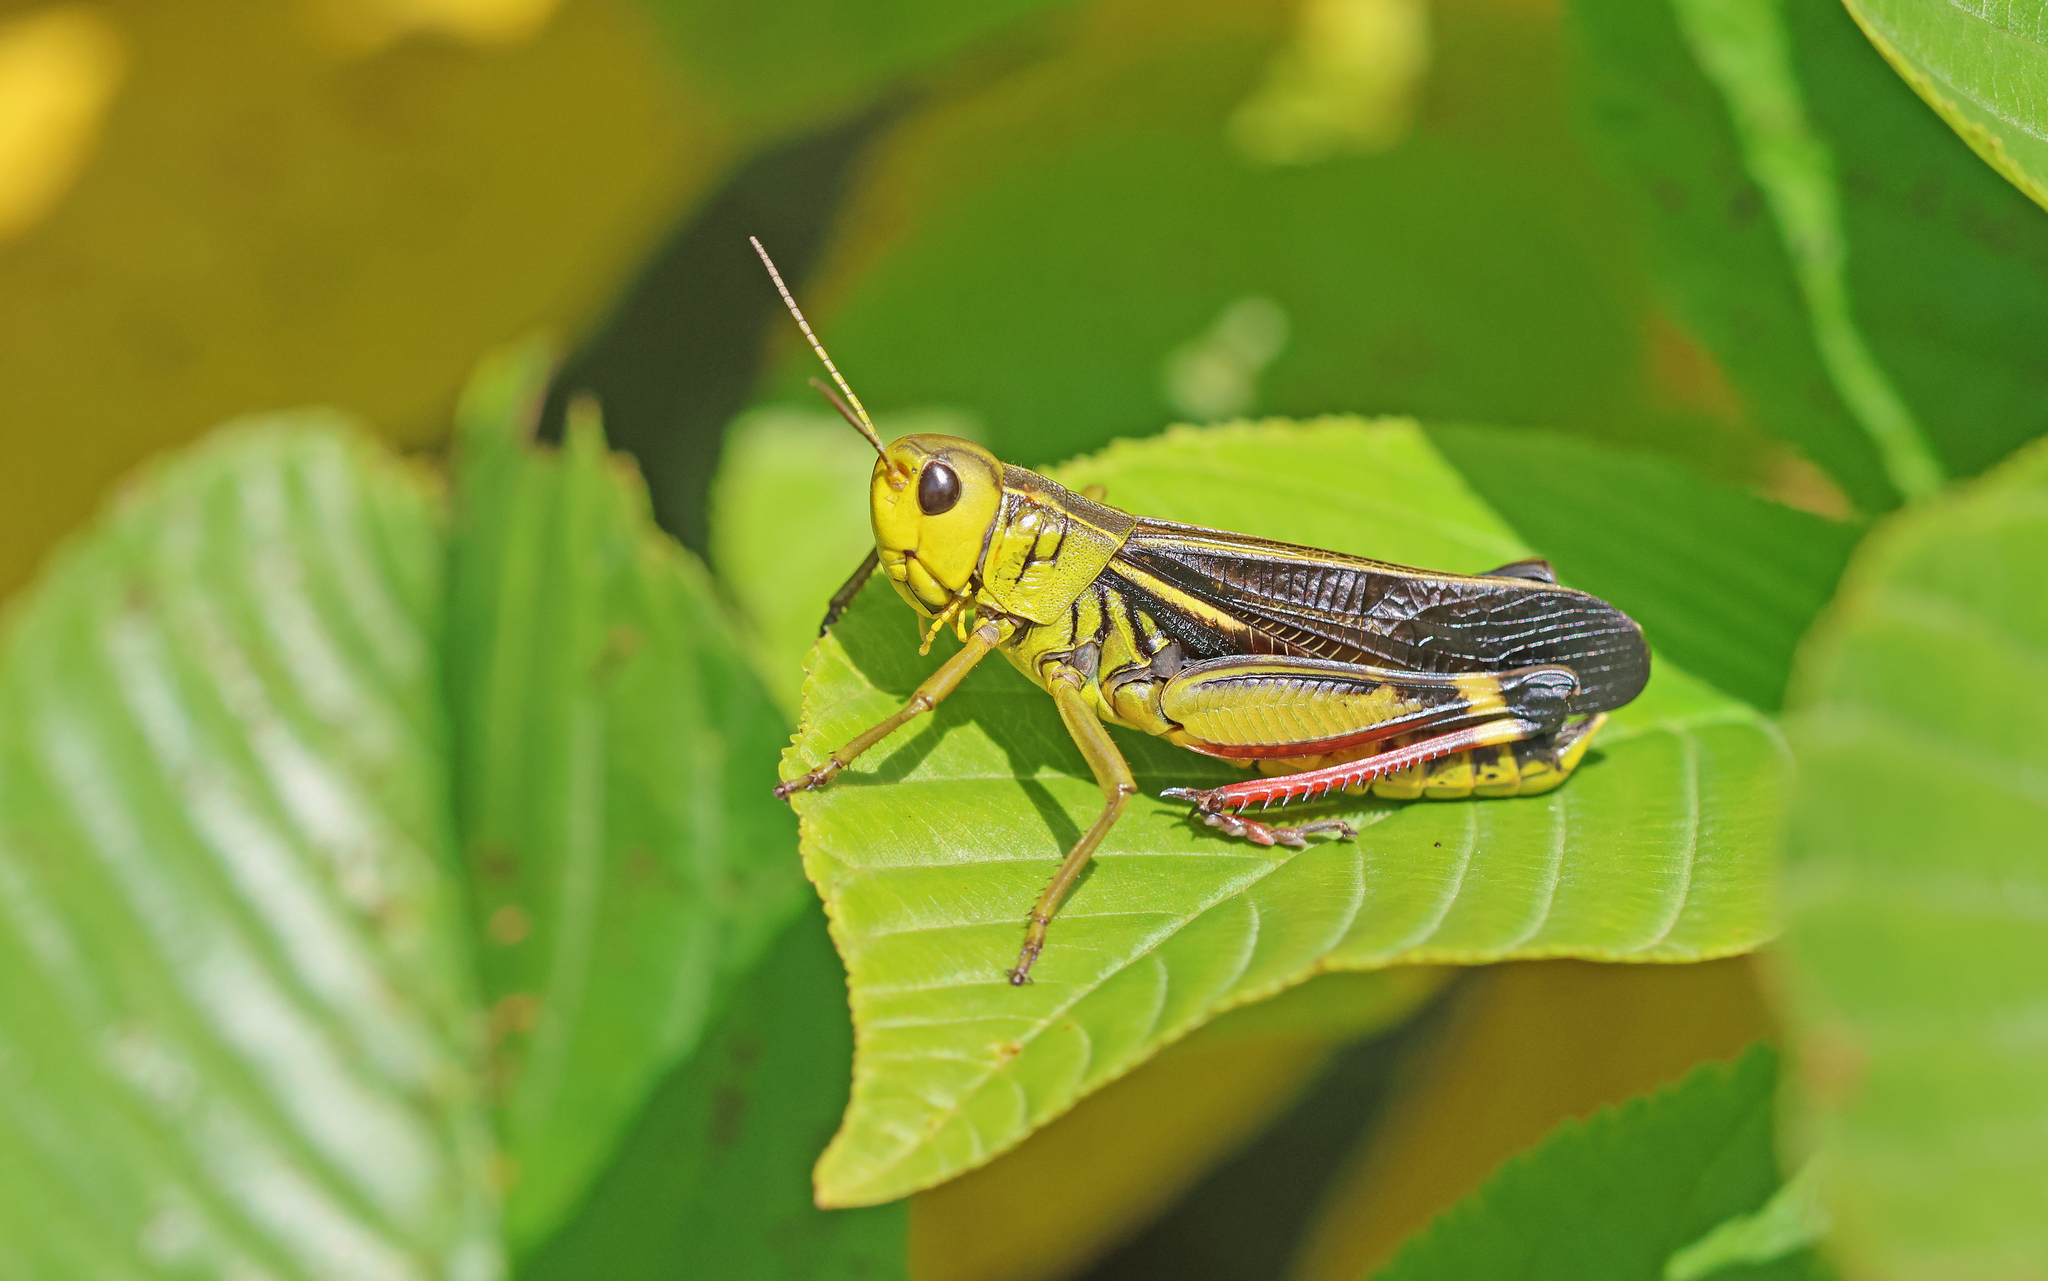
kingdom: Animalia
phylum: Arthropoda
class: Insecta
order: Orthoptera
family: Acrididae
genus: Arcyptera
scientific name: Arcyptera fusca
